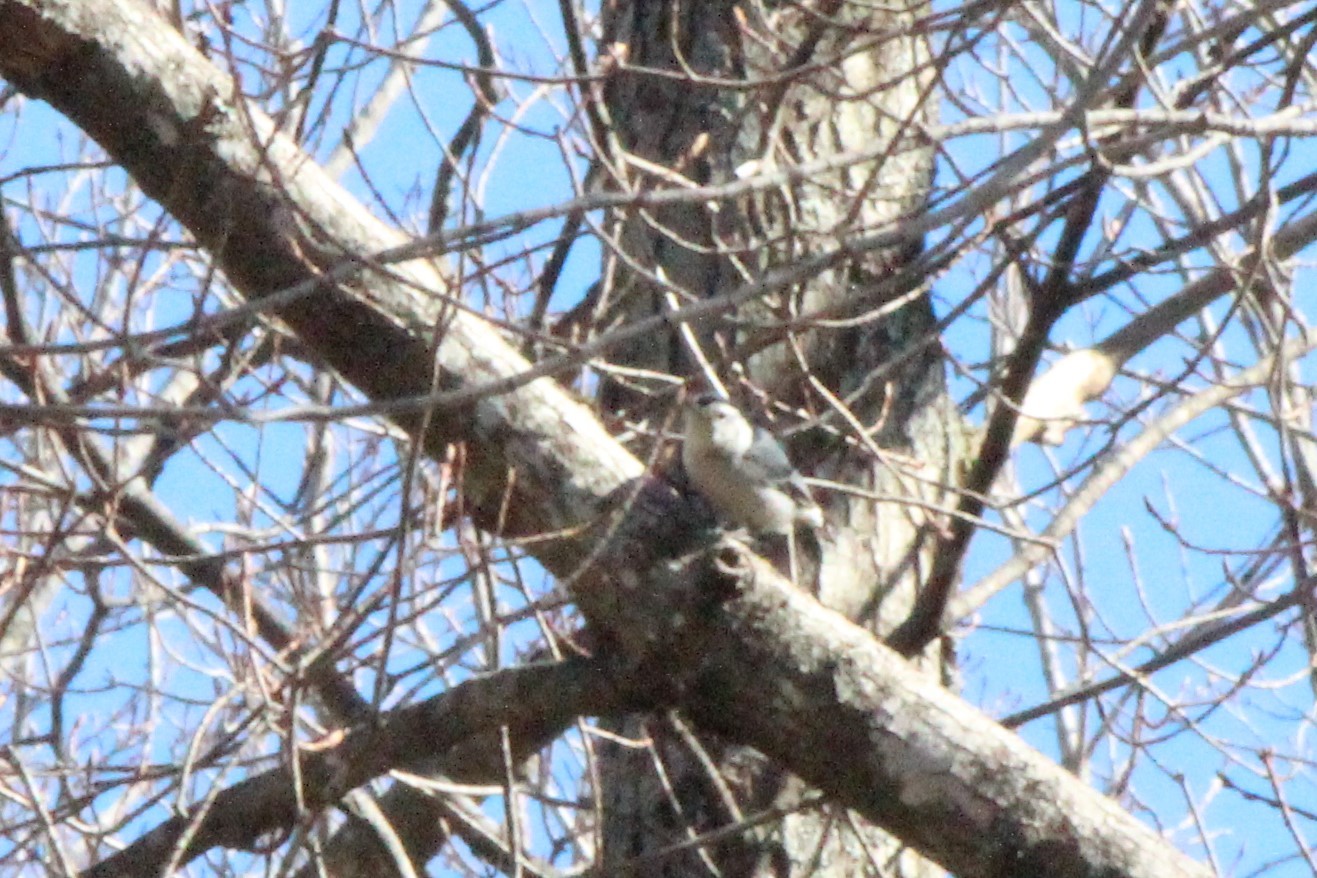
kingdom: Animalia
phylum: Chordata
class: Aves
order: Passeriformes
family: Sittidae
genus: Sitta
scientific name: Sitta carolinensis
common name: White-breasted nuthatch
